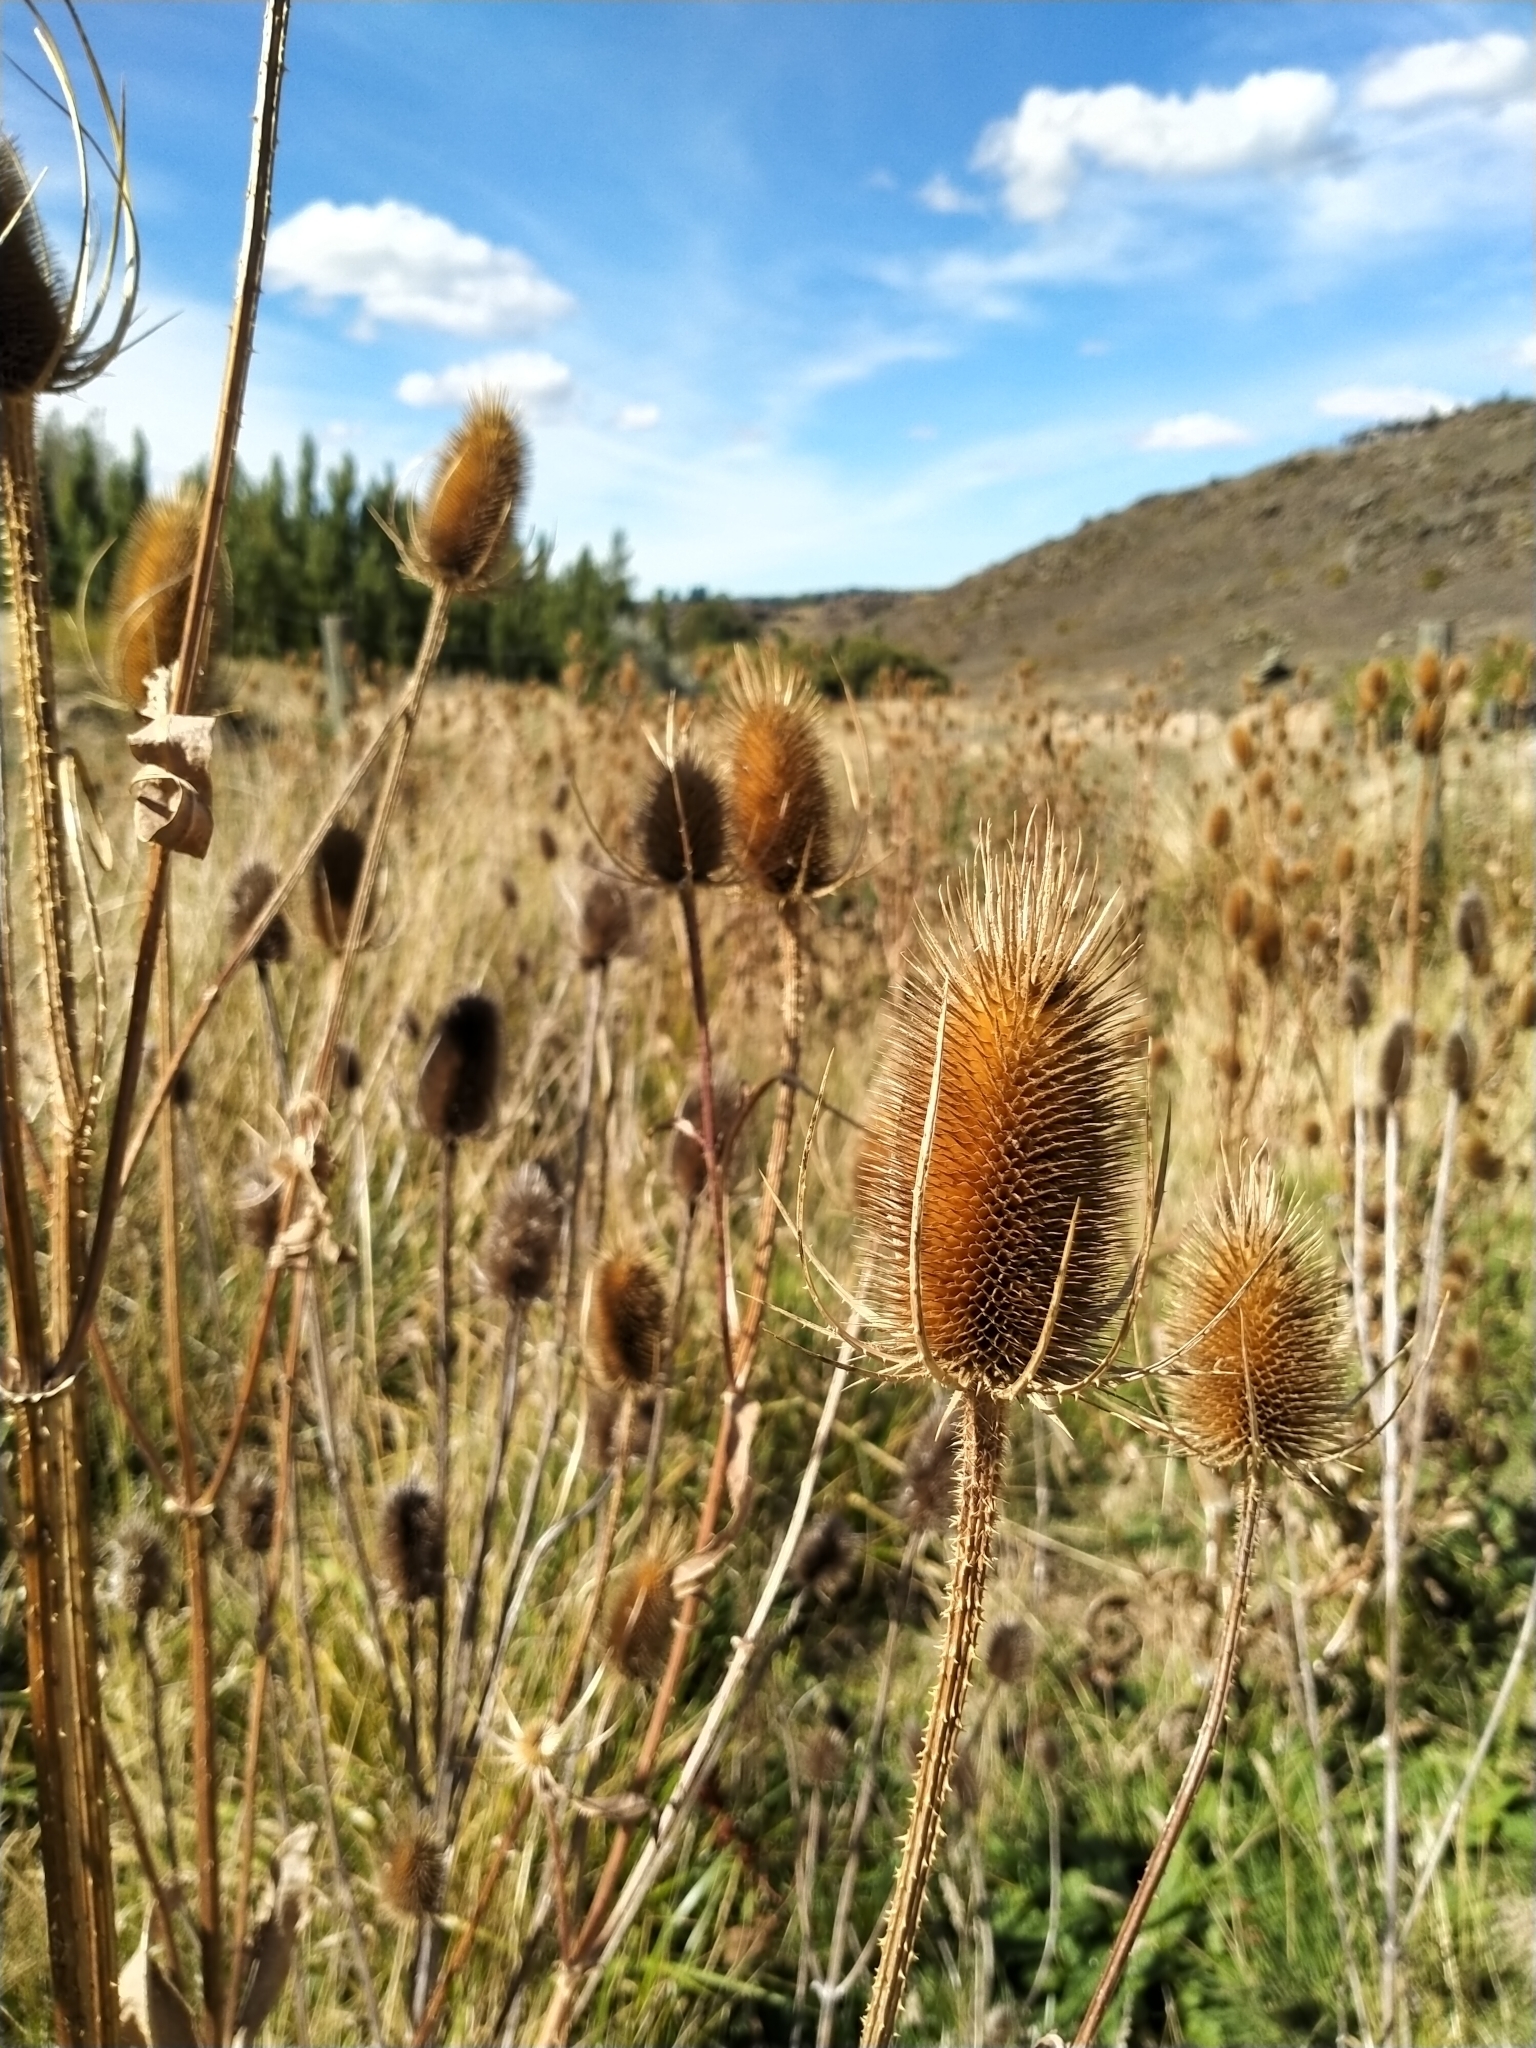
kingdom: Plantae
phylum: Tracheophyta
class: Magnoliopsida
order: Dipsacales
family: Caprifoliaceae
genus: Dipsacus
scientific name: Dipsacus fullonum
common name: Teasel
